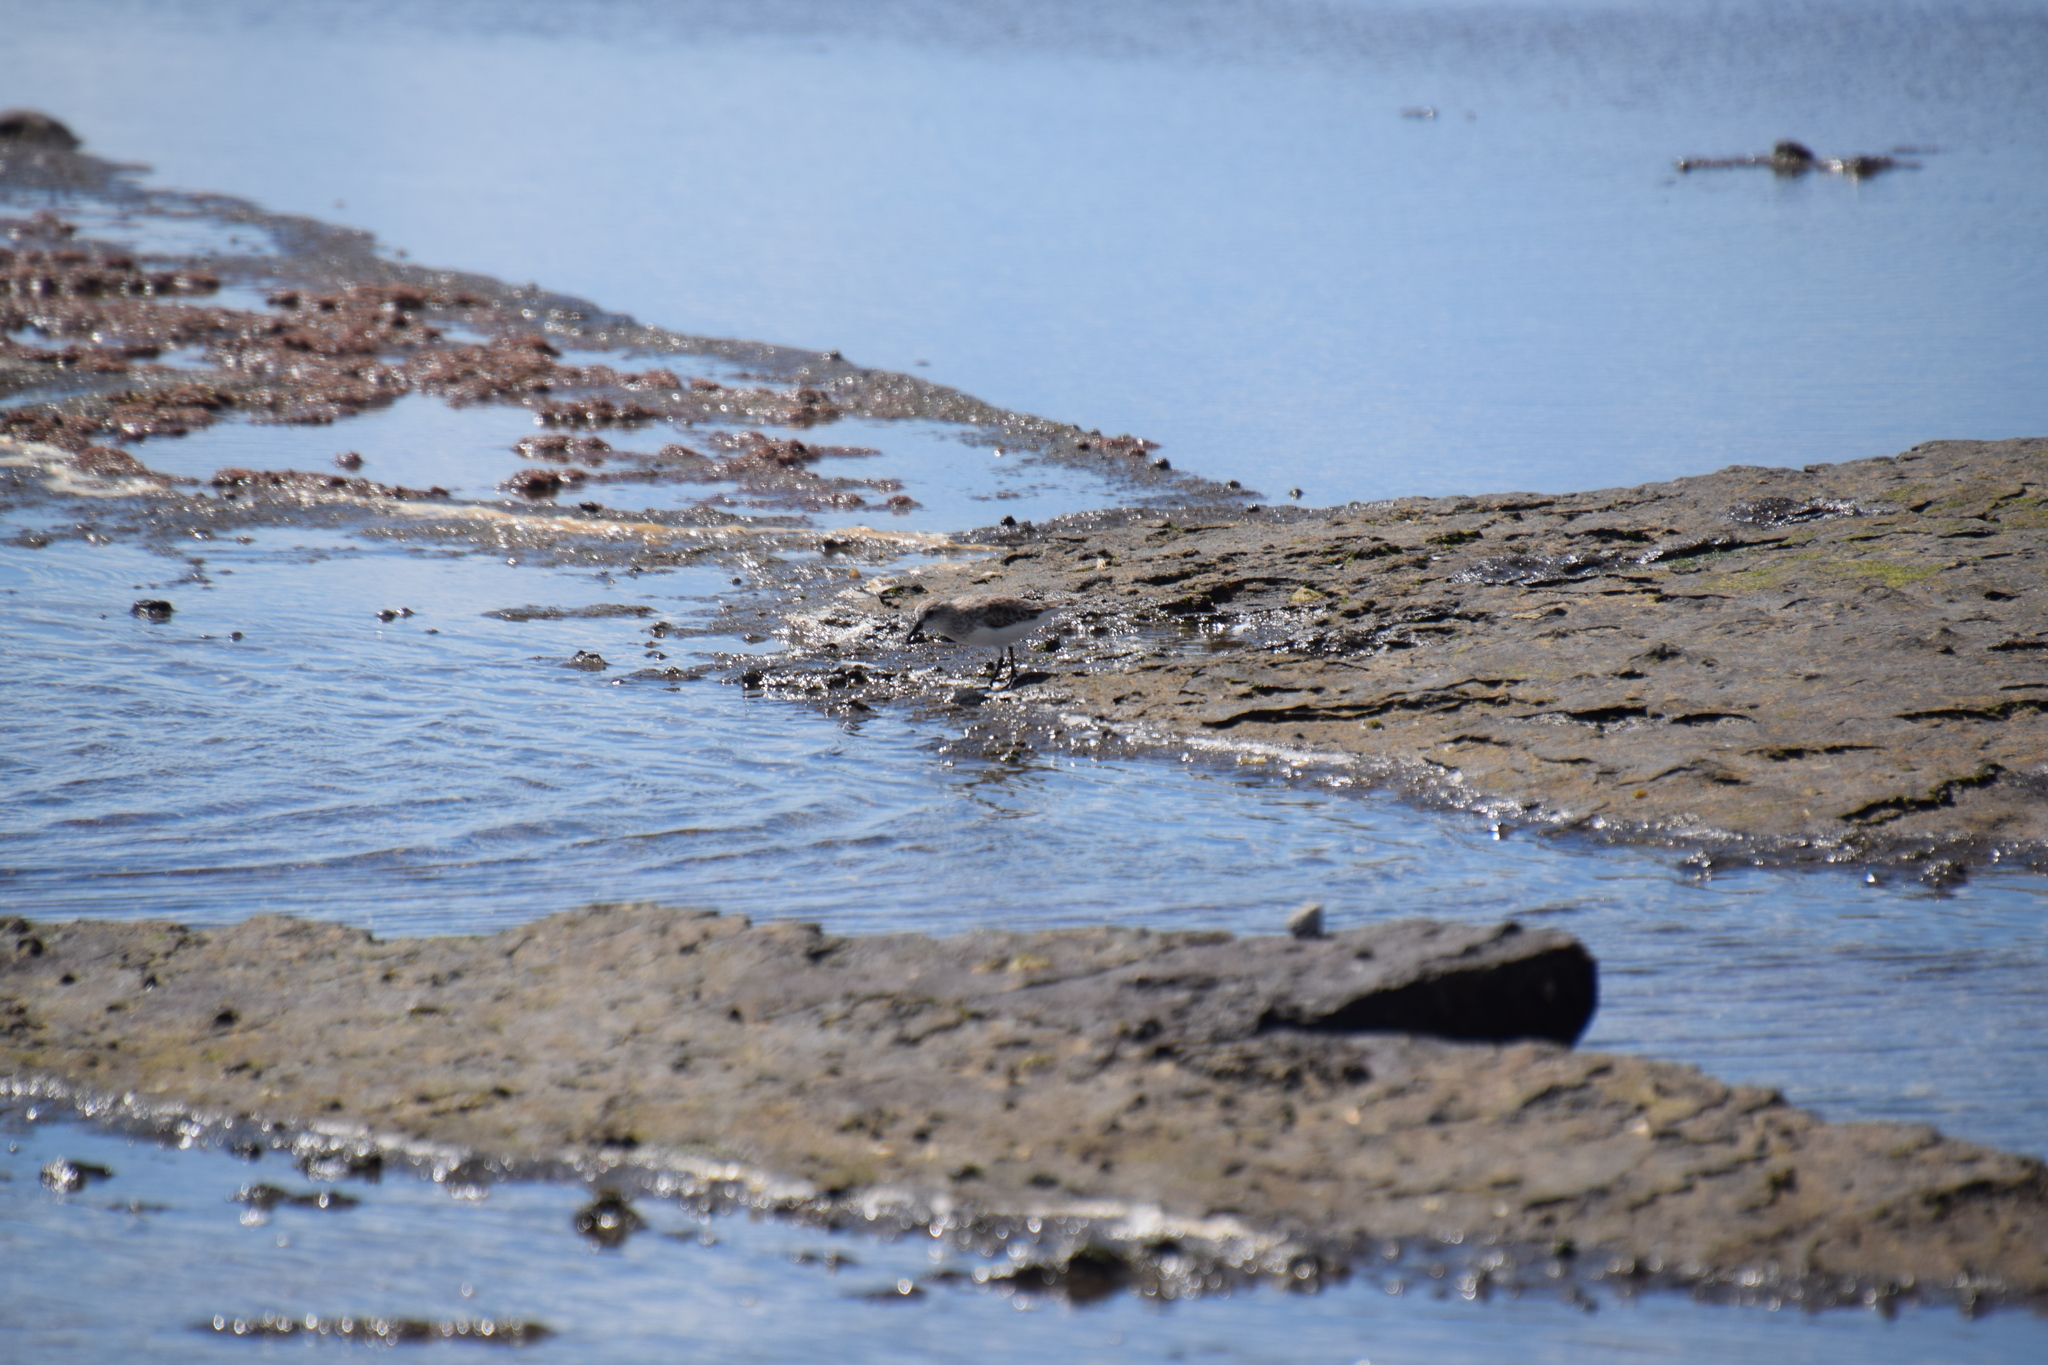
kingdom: Animalia
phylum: Chordata
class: Aves
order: Charadriiformes
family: Scolopacidae
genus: Calidris
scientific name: Calidris ruficollis
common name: Red-necked stint
